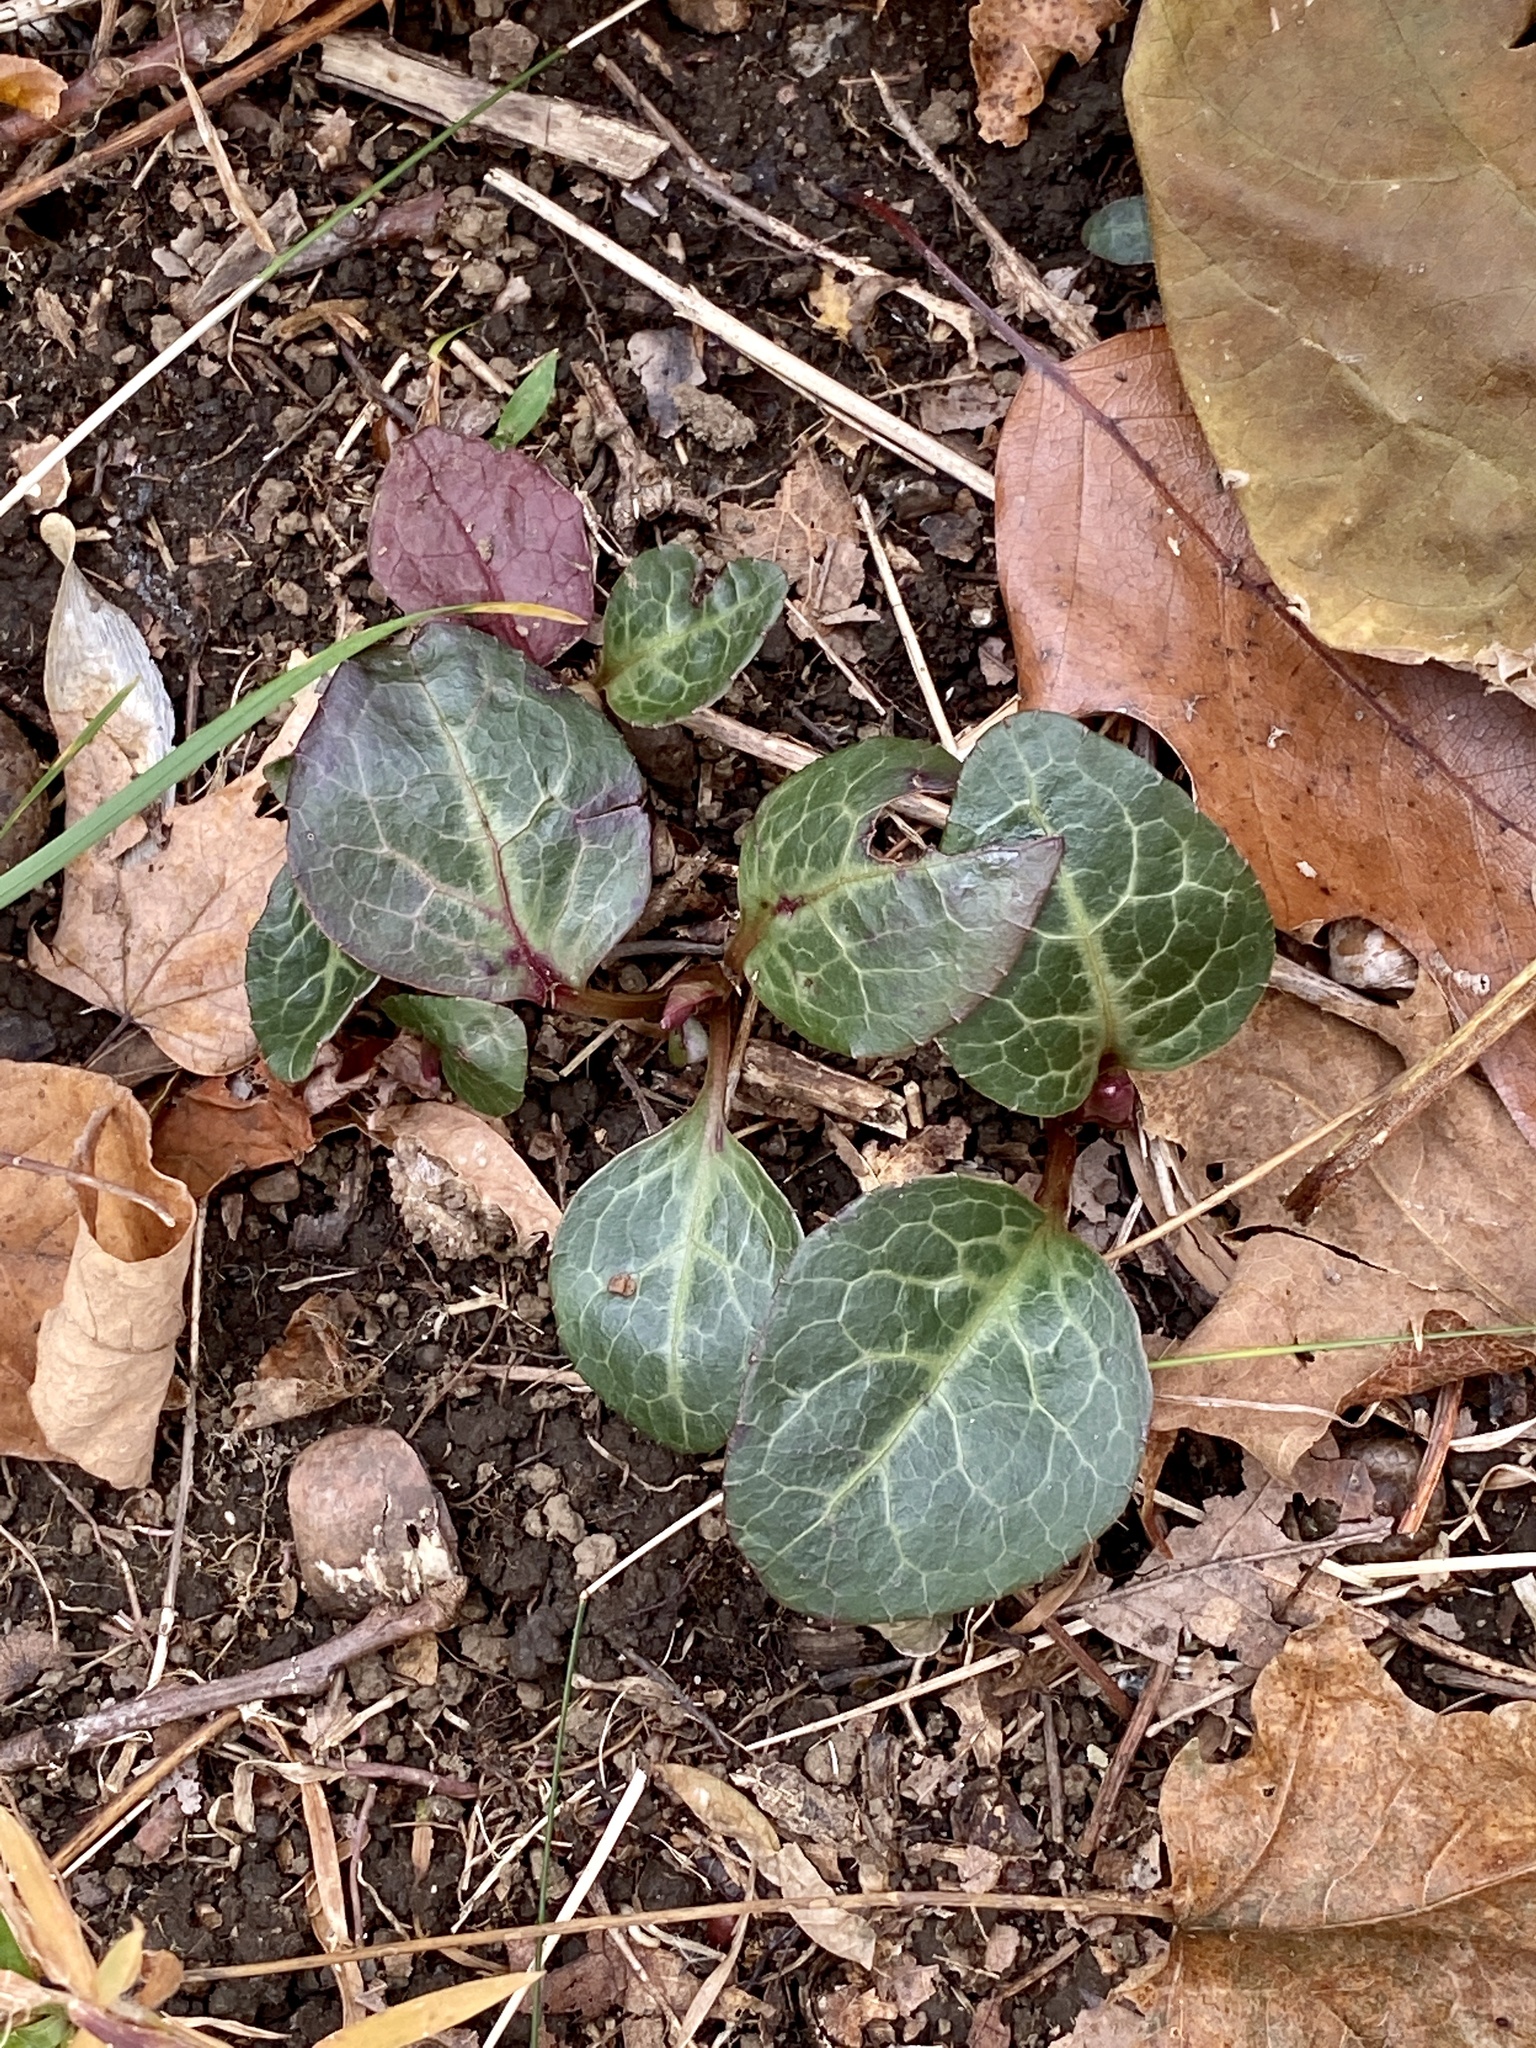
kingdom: Plantae
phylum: Tracheophyta
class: Magnoliopsida
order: Ericales
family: Ericaceae
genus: Pyrola
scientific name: Pyrola americana
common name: American wintergreen
